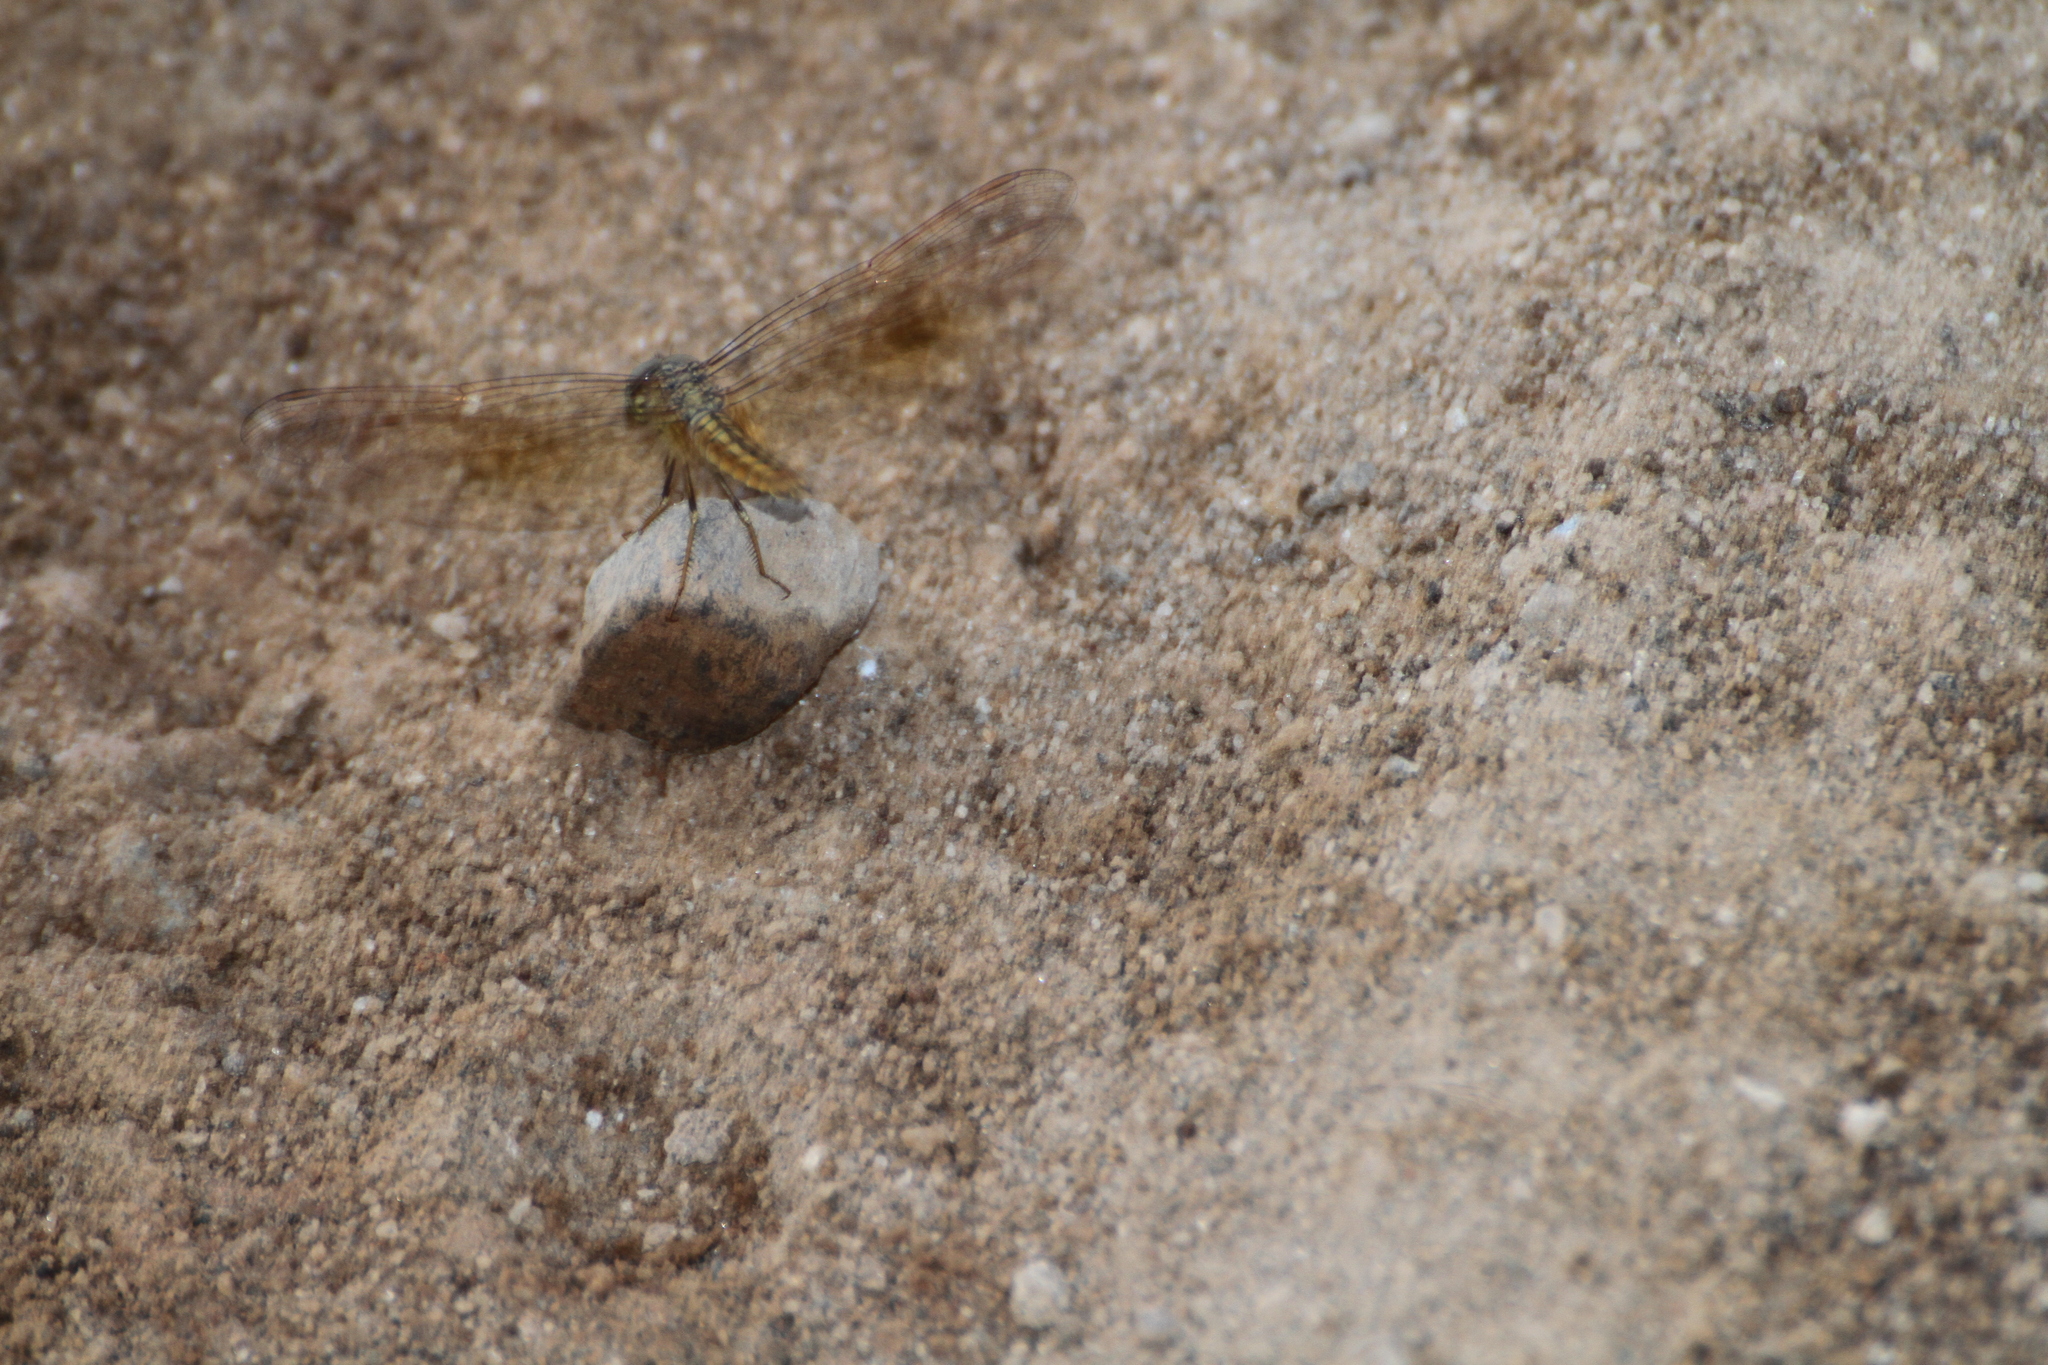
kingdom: Animalia
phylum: Arthropoda
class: Insecta
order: Odonata
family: Libellulidae
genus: Brachythemis
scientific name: Brachythemis contaminata
